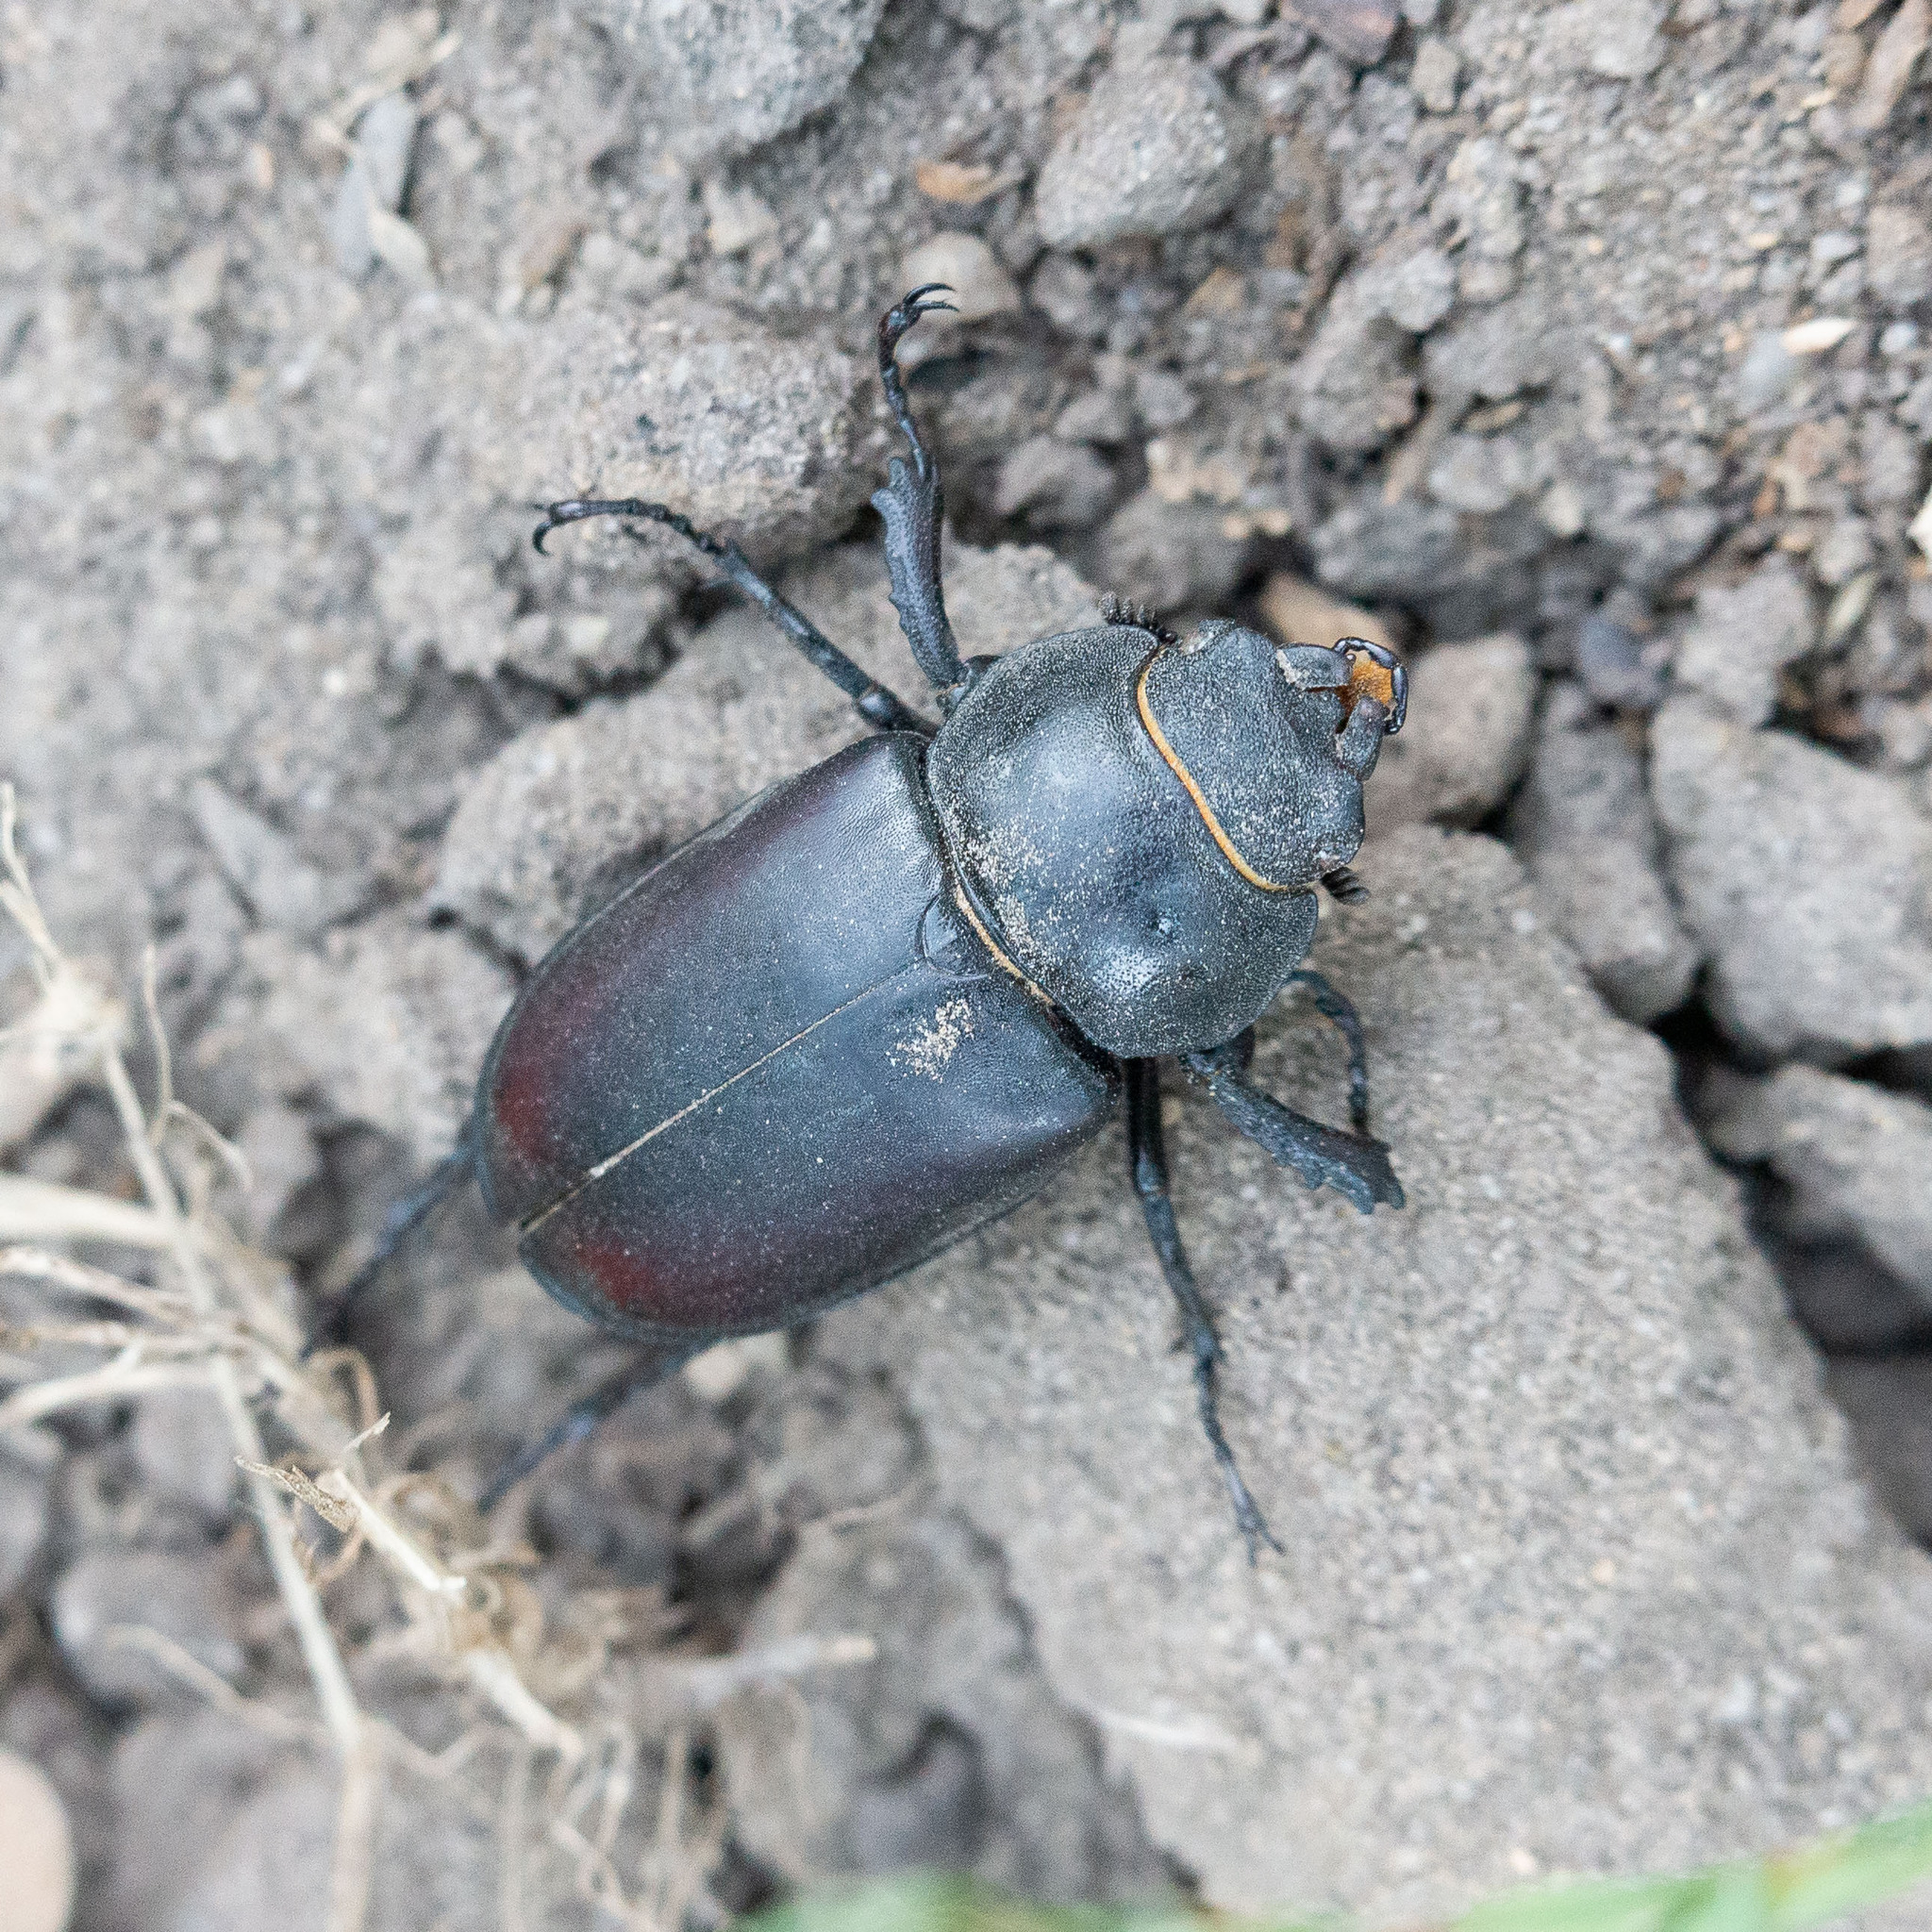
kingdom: Animalia
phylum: Arthropoda
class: Insecta
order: Coleoptera
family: Lucanidae
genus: Lucanus
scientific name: Lucanus cervus
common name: Stag beetle
